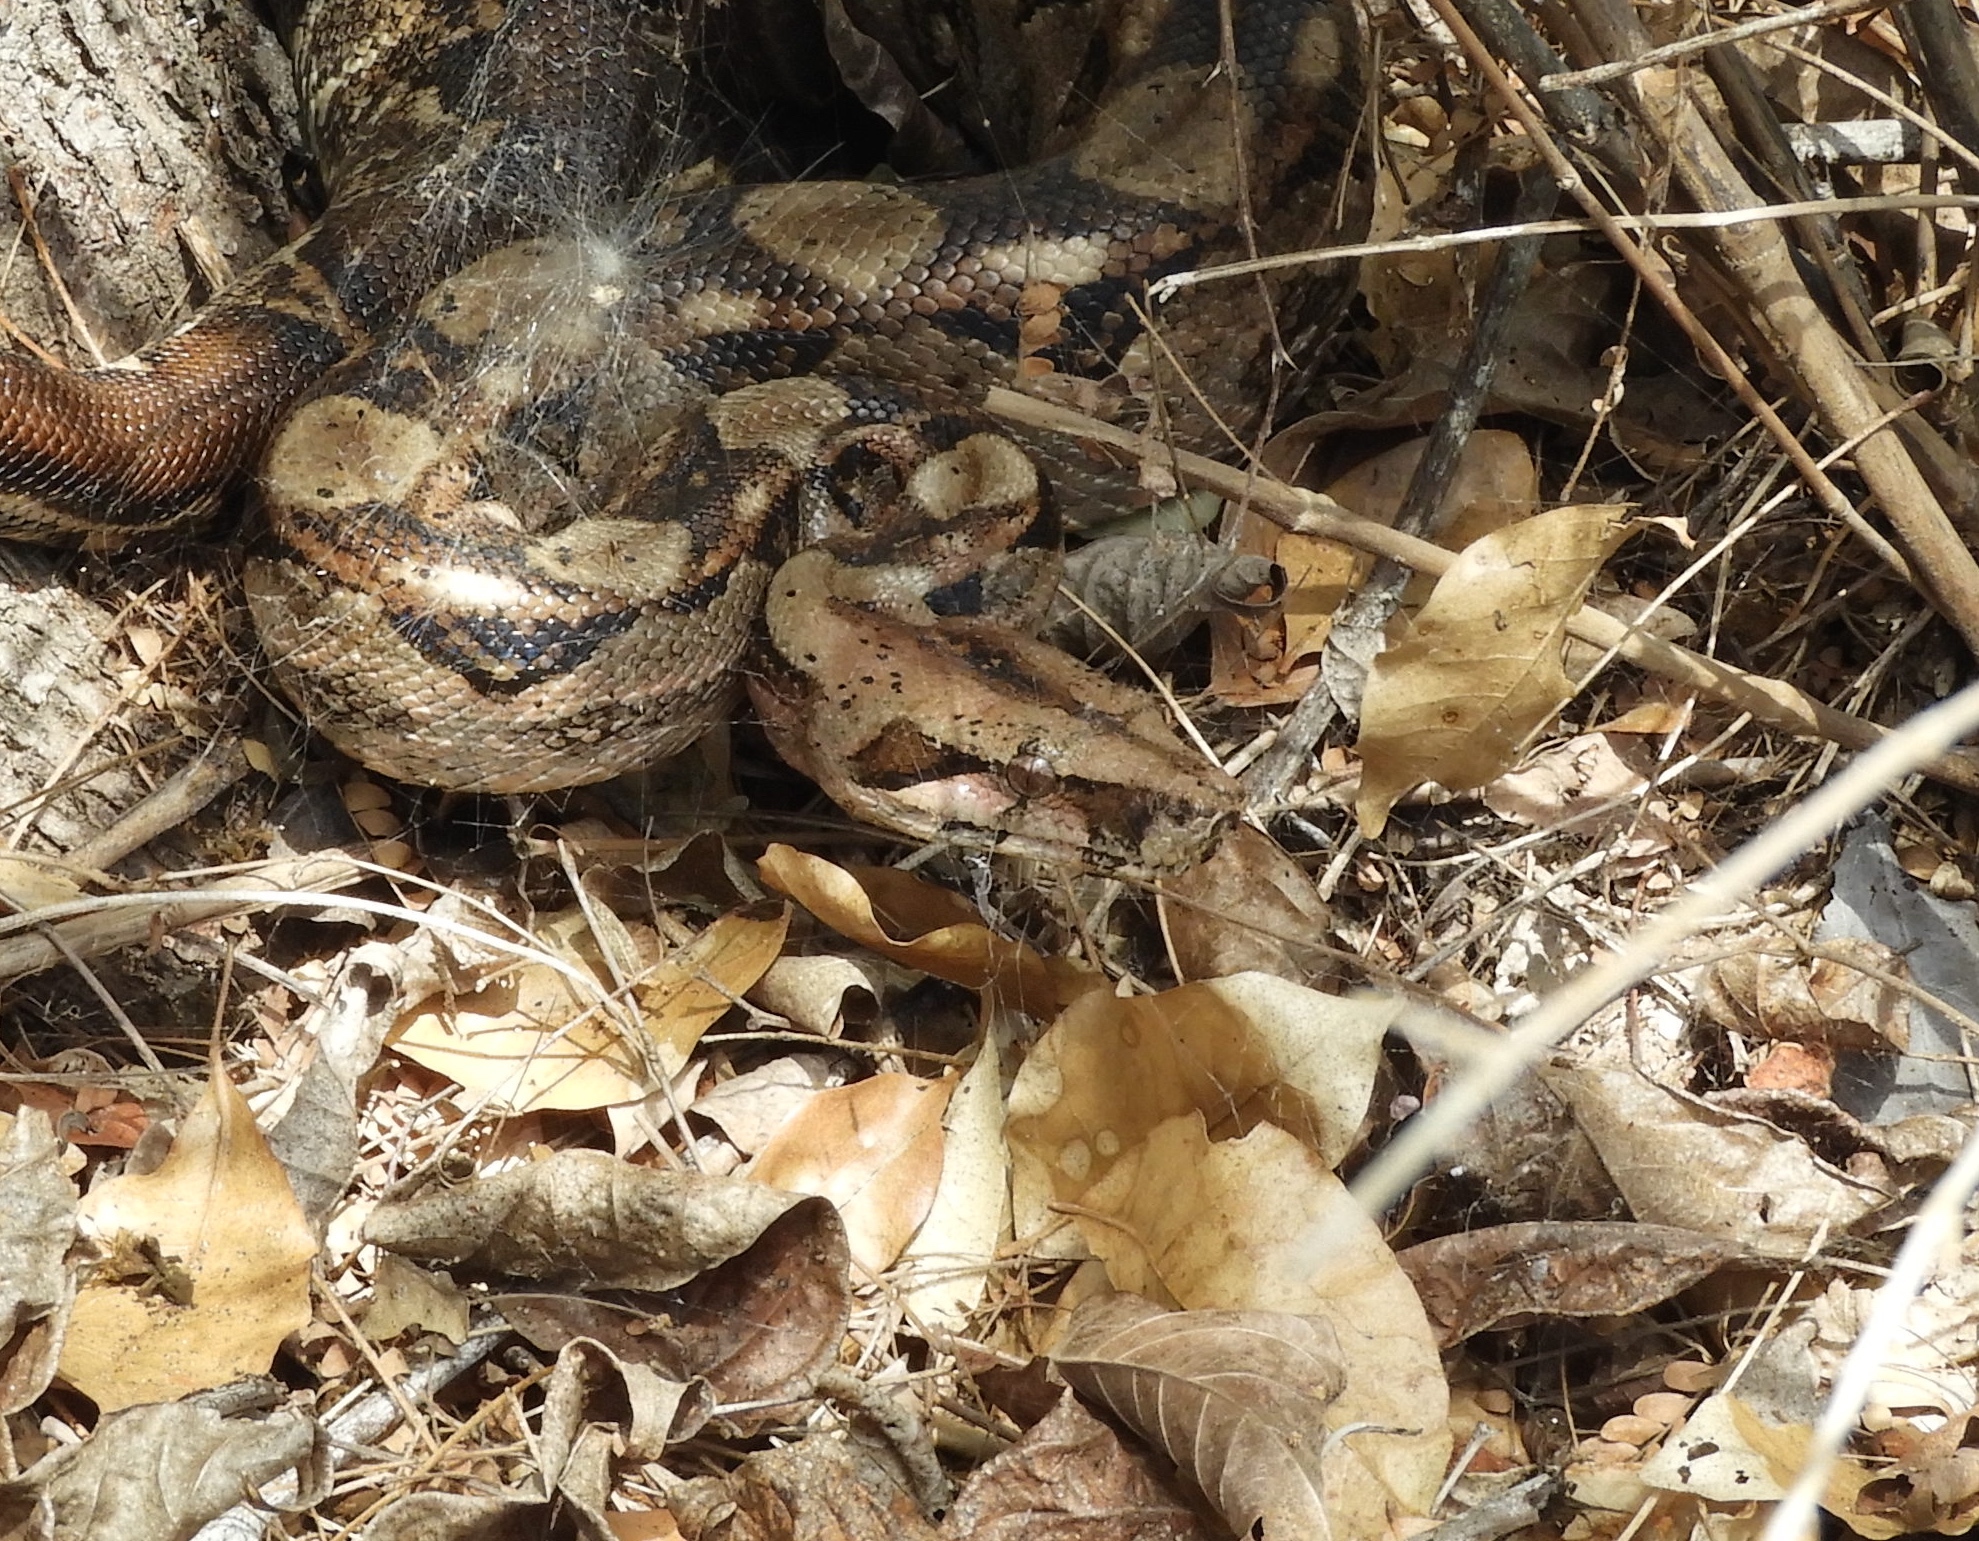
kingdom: Animalia
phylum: Chordata
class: Squamata
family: Boidae
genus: Boa
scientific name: Boa
